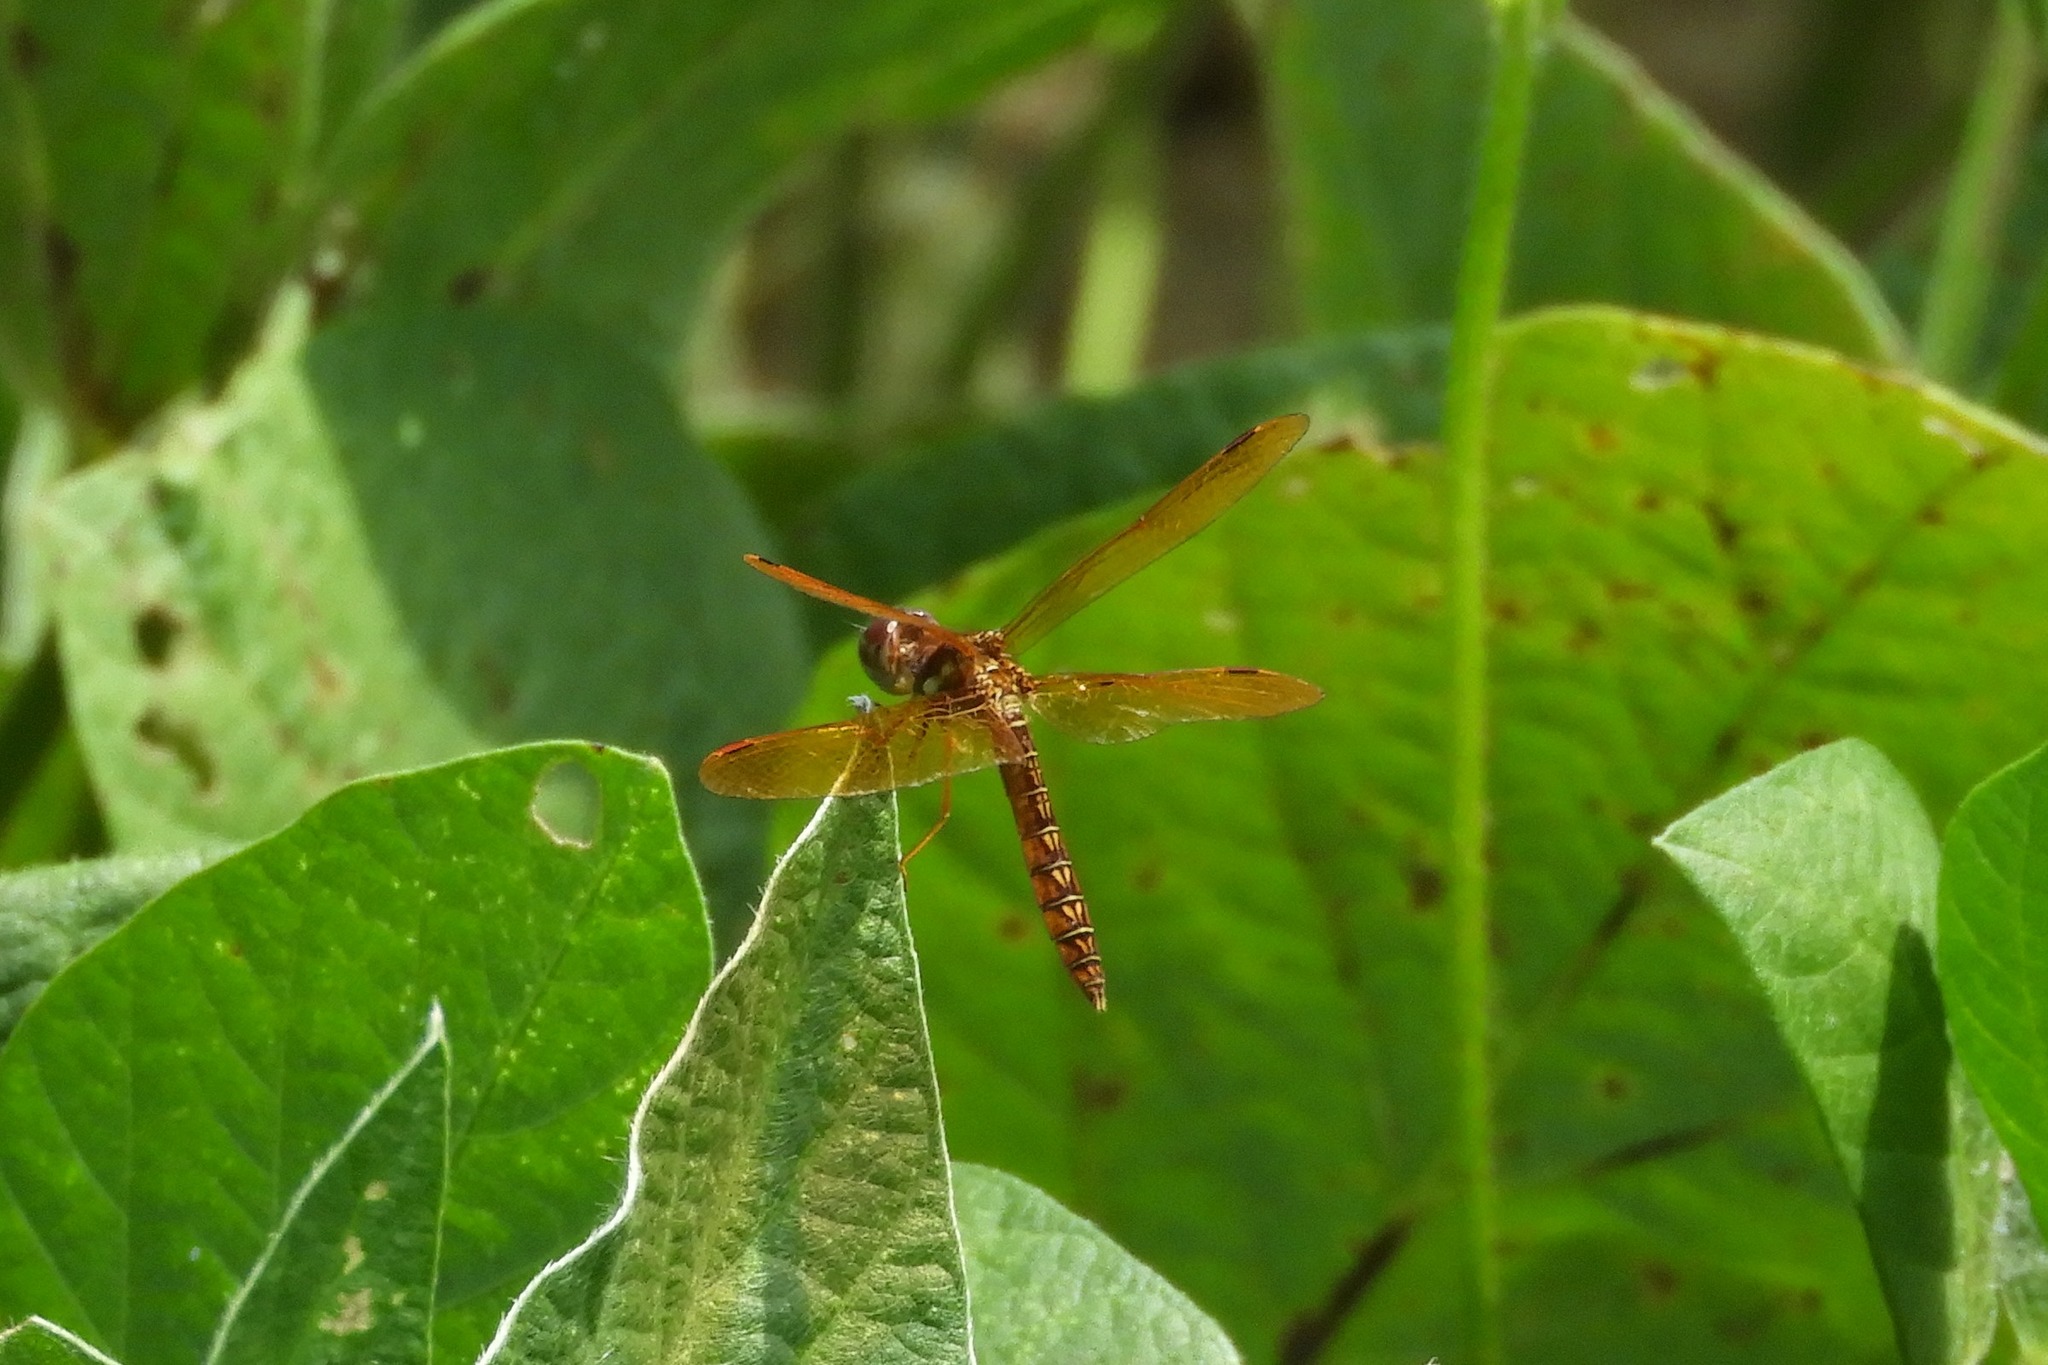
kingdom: Animalia
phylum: Arthropoda
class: Insecta
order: Odonata
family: Libellulidae
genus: Perithemis
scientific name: Perithemis tenera
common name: Eastern amberwing
